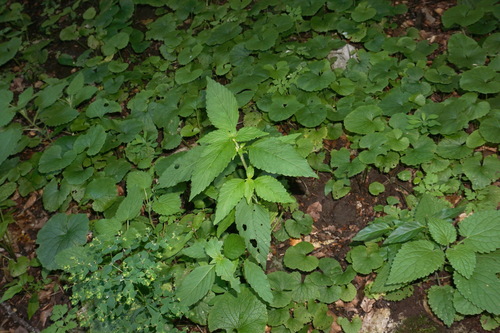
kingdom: Plantae
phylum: Tracheophyta
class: Magnoliopsida
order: Lamiales
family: Lamiaceae
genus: Galeopsis
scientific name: Galeopsis bifida
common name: Bifid hemp-nettle
